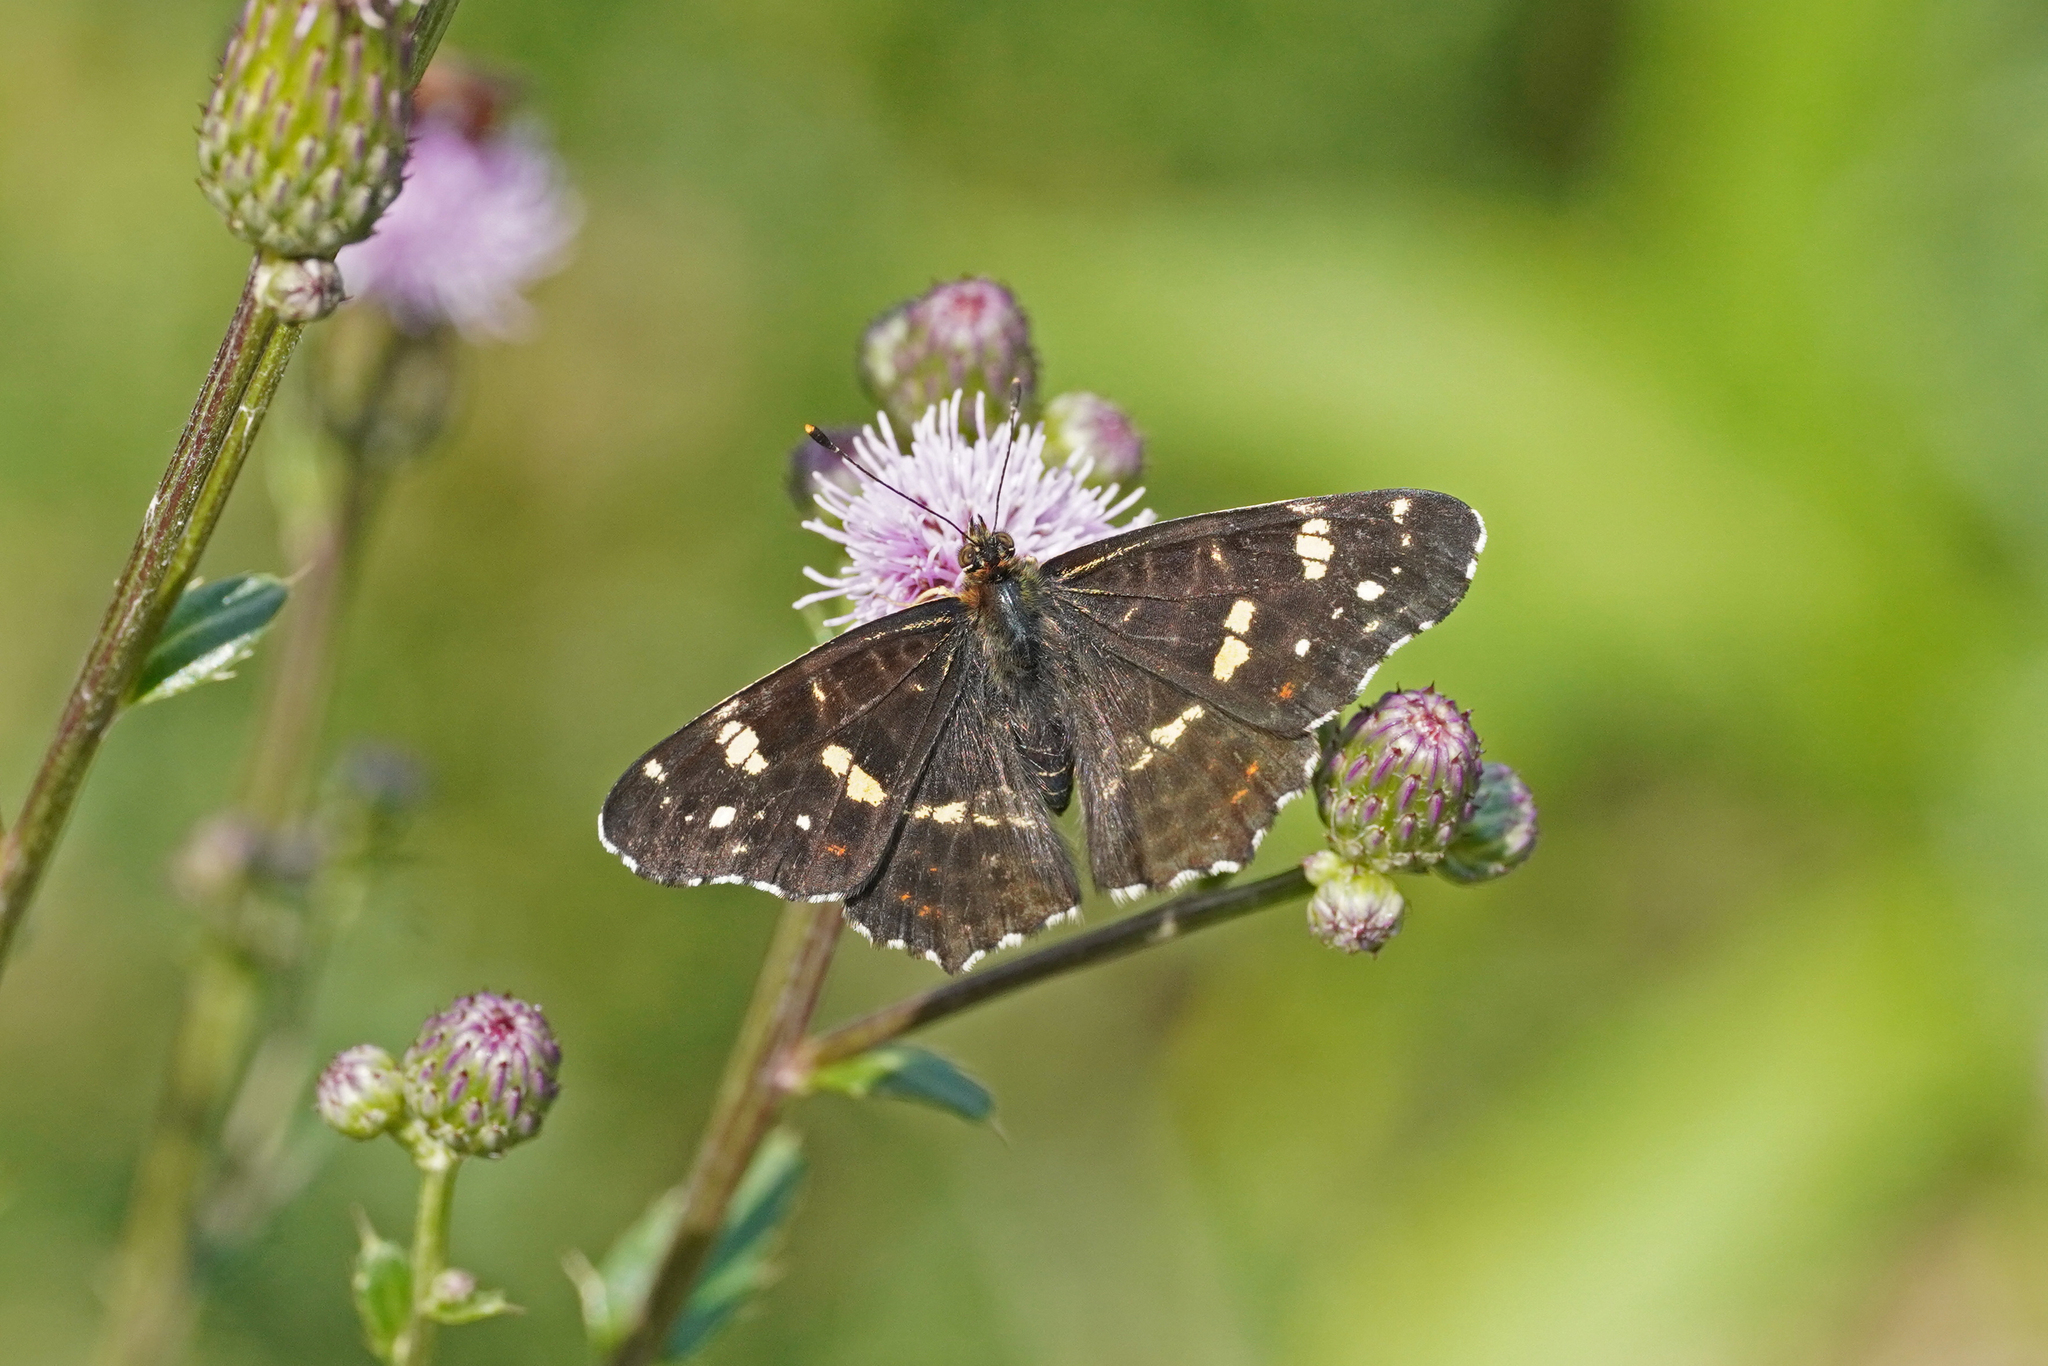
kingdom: Animalia
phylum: Arthropoda
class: Insecta
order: Lepidoptera
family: Nymphalidae
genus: Araschnia
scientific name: Araschnia levana
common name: Map butterfly
